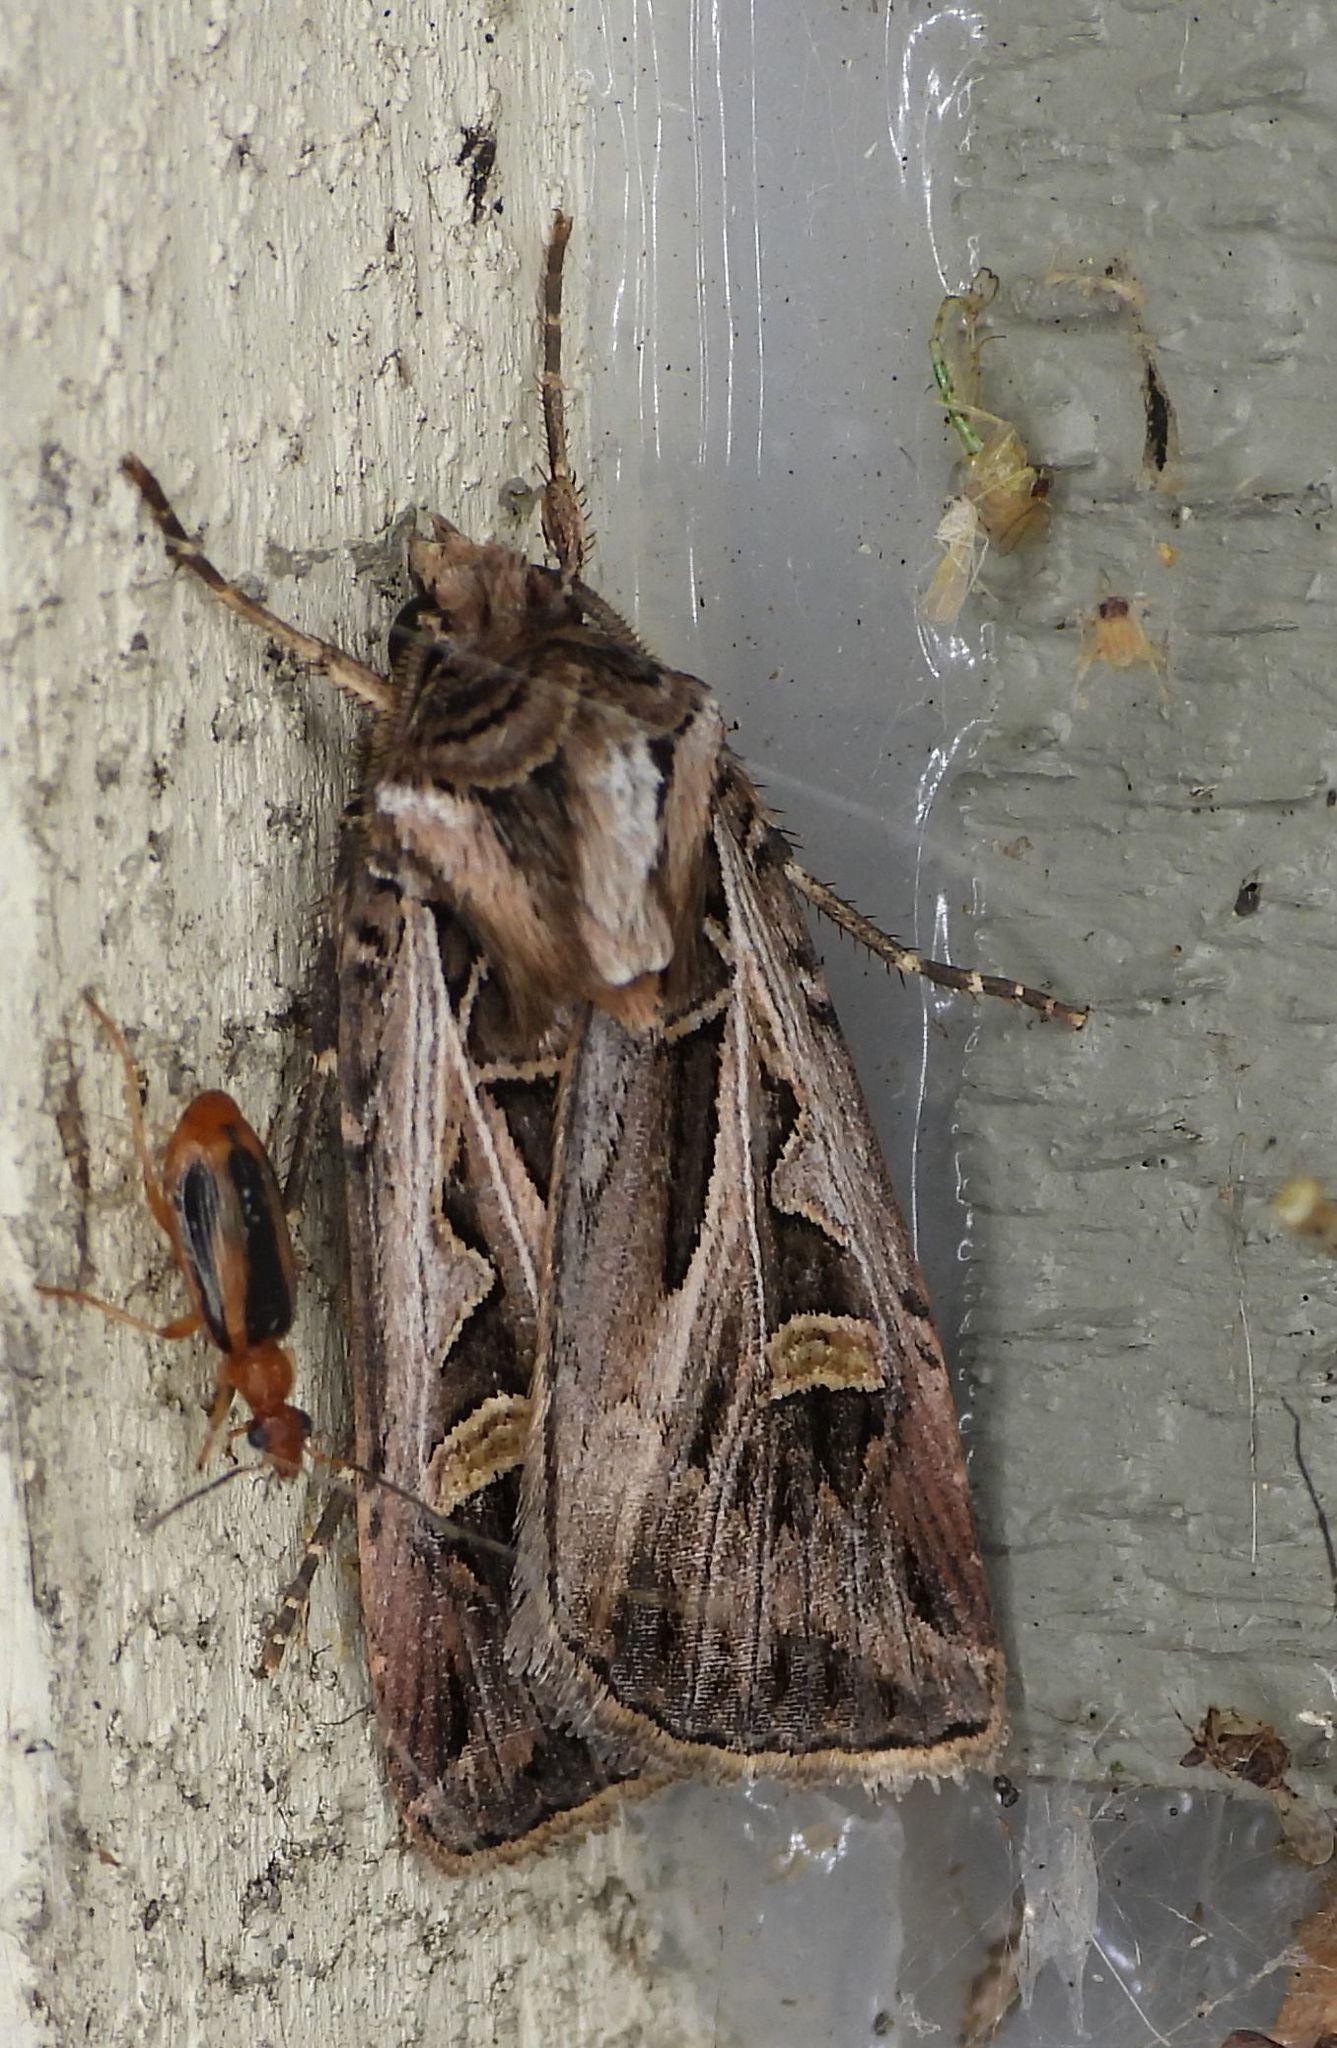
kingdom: Animalia
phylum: Arthropoda
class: Insecta
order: Lepidoptera
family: Noctuidae
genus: Feltia
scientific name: Feltia jaculifera
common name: Dingy cutworm moth
